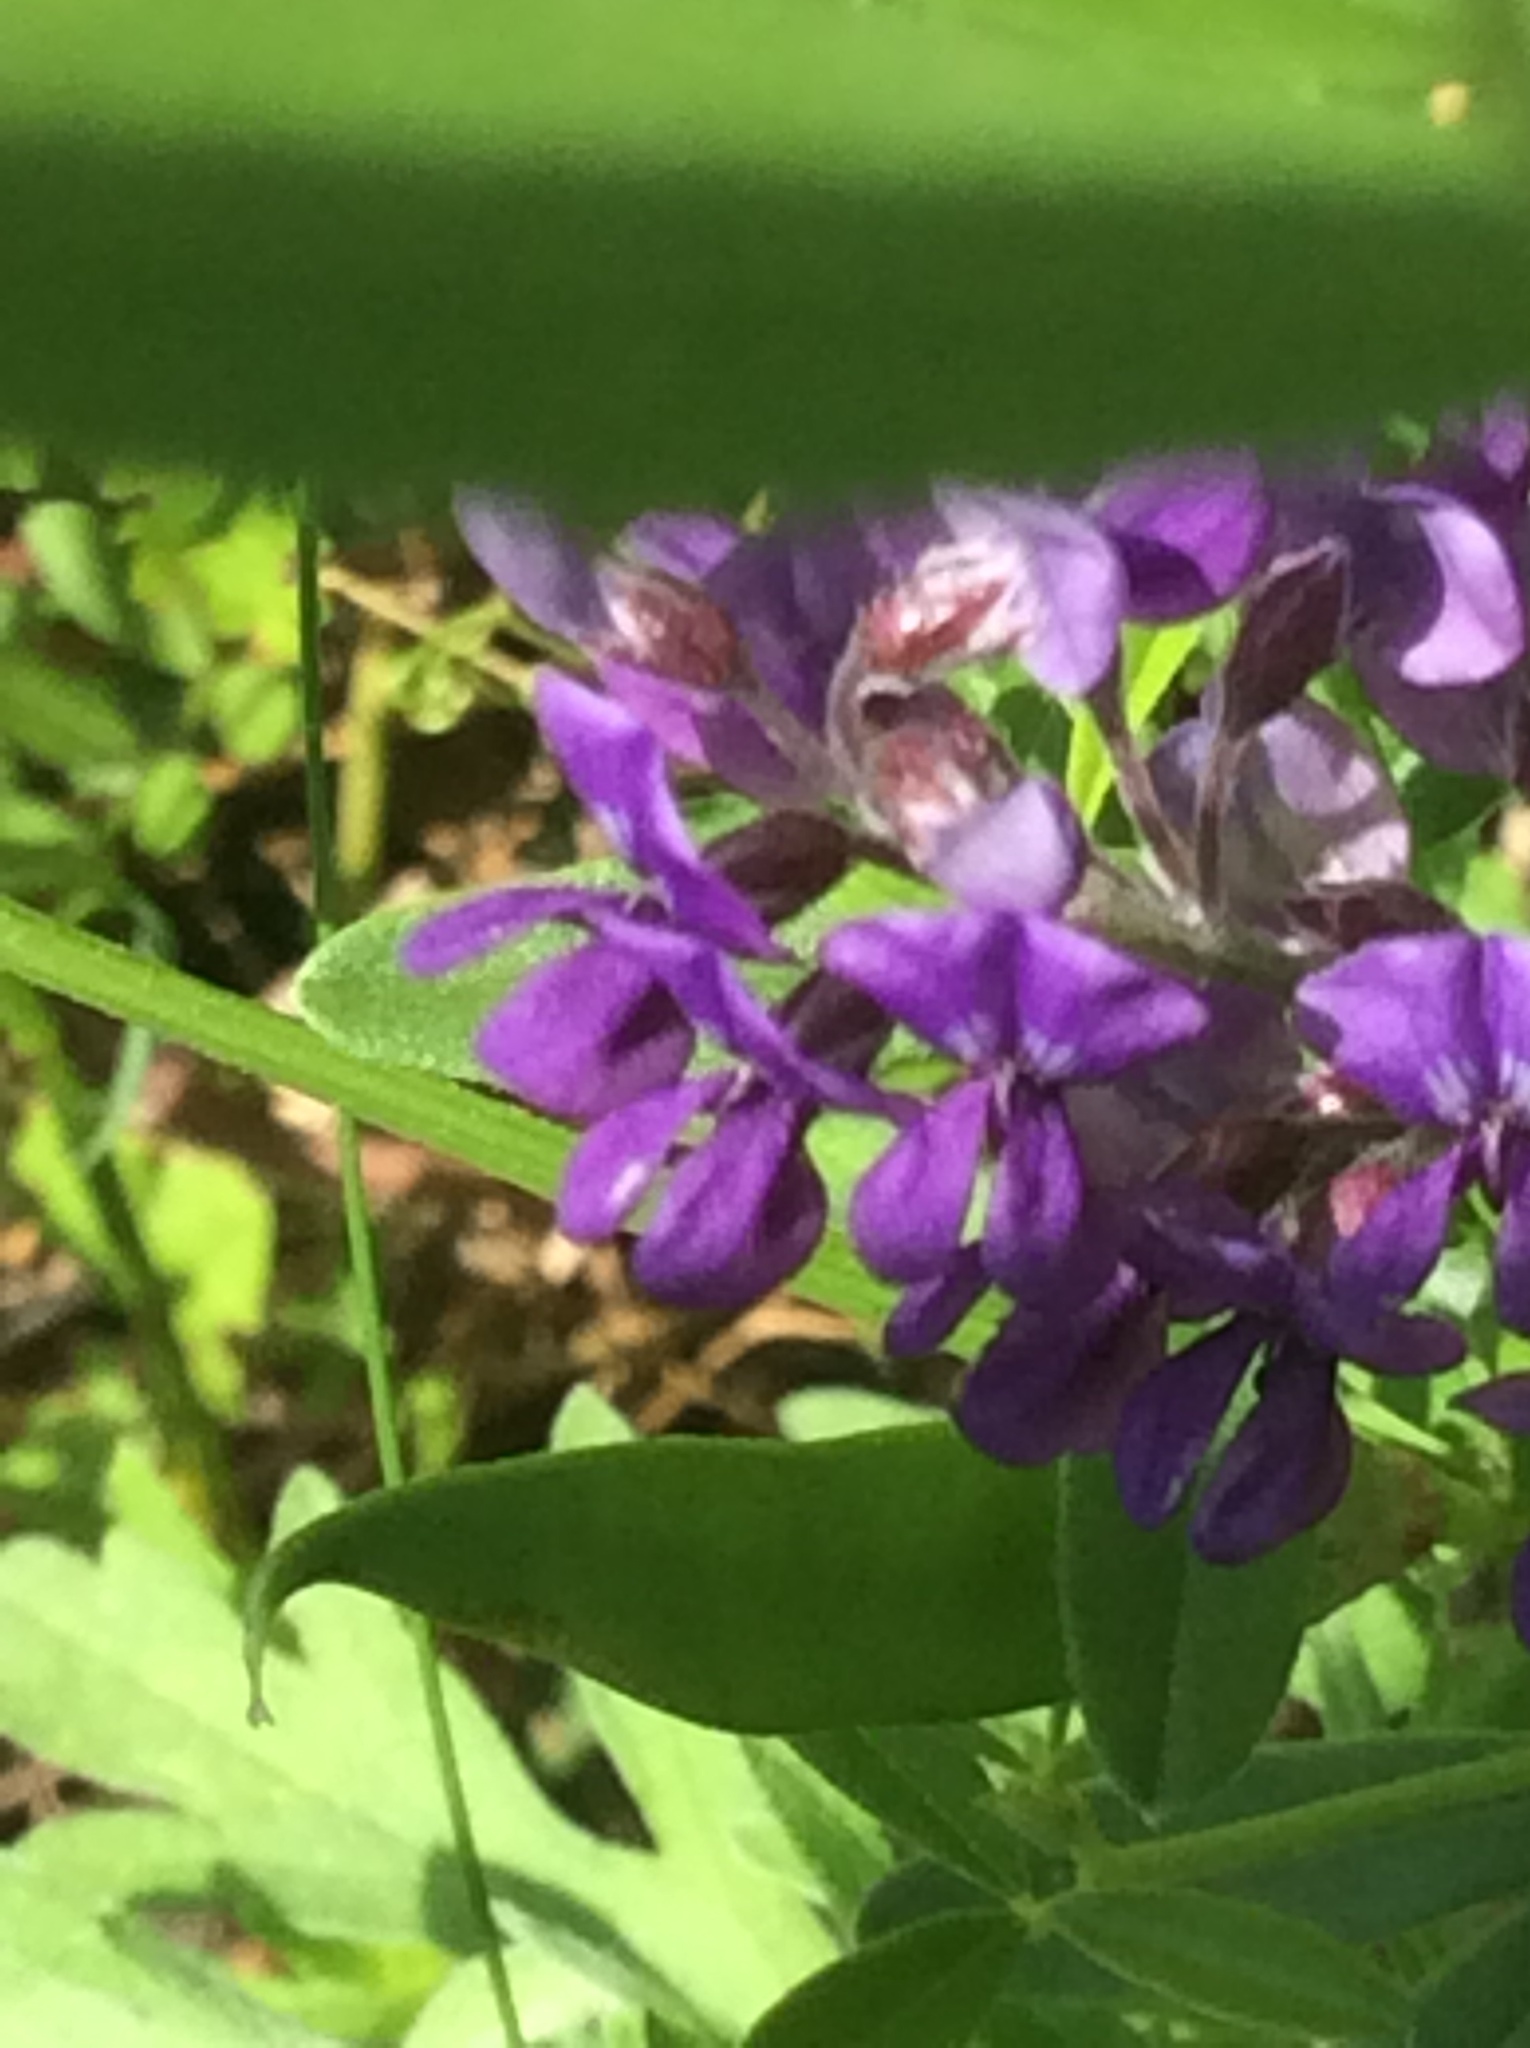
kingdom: Plantae
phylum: Tracheophyta
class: Magnoliopsida
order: Fabales
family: Fabaceae
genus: Pediomelum
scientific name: Pediomelum tenuiflorum
